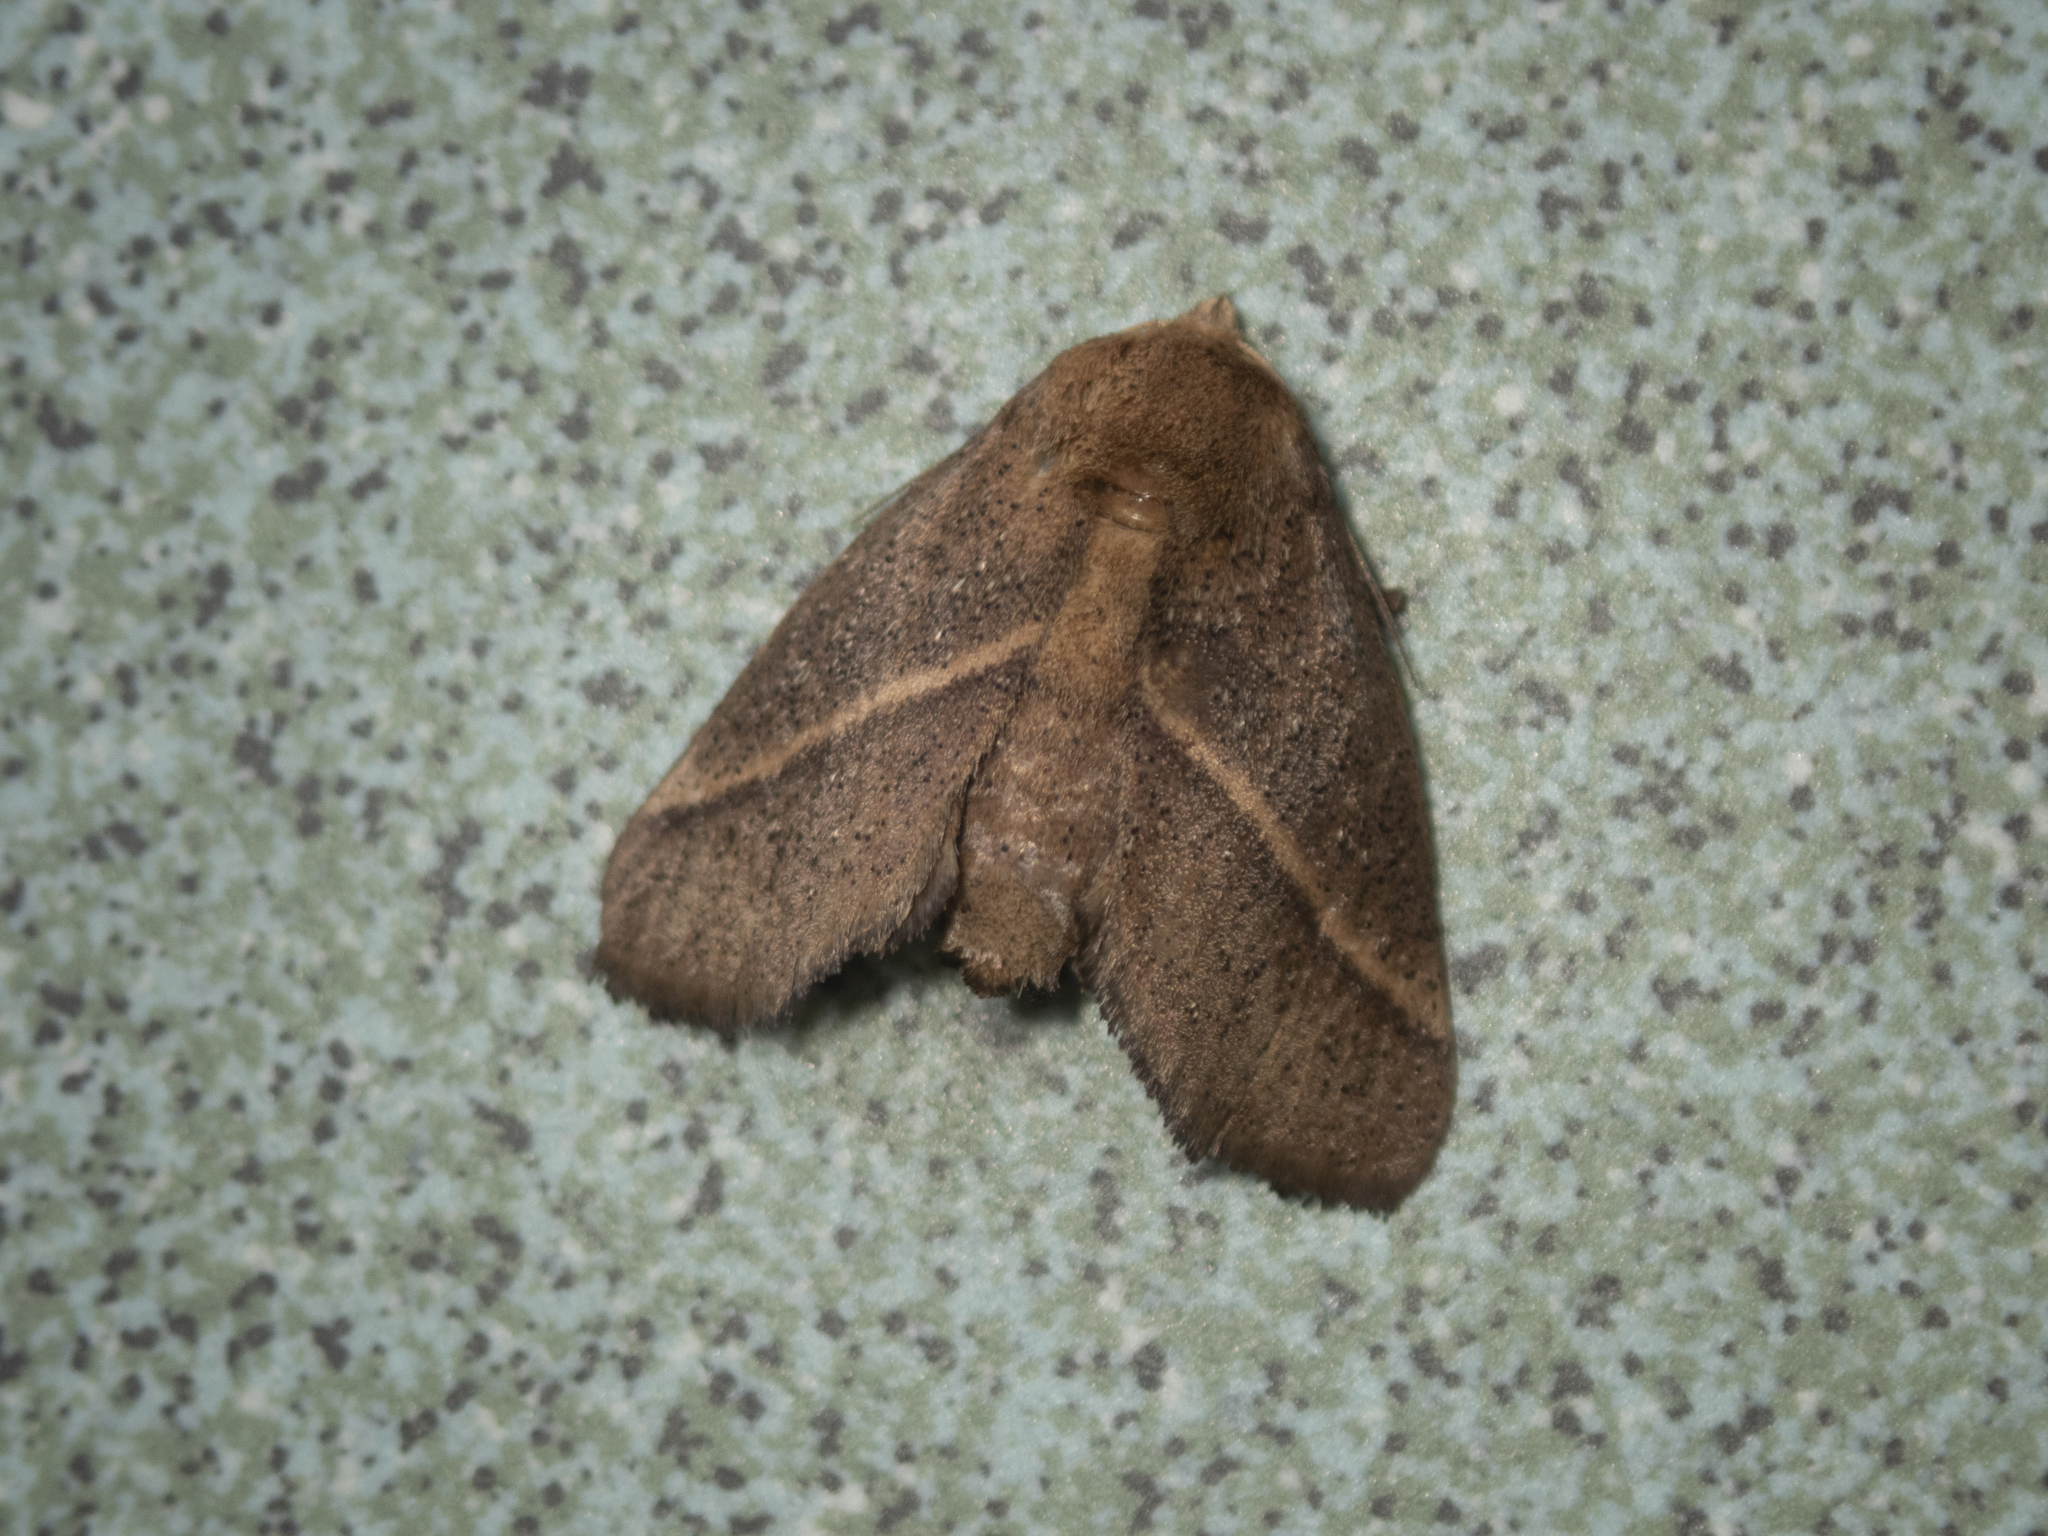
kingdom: Animalia
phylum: Arthropoda
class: Insecta
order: Lepidoptera
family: Limacodidae
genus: Quasithosea
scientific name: Quasithosea obliquistriga
